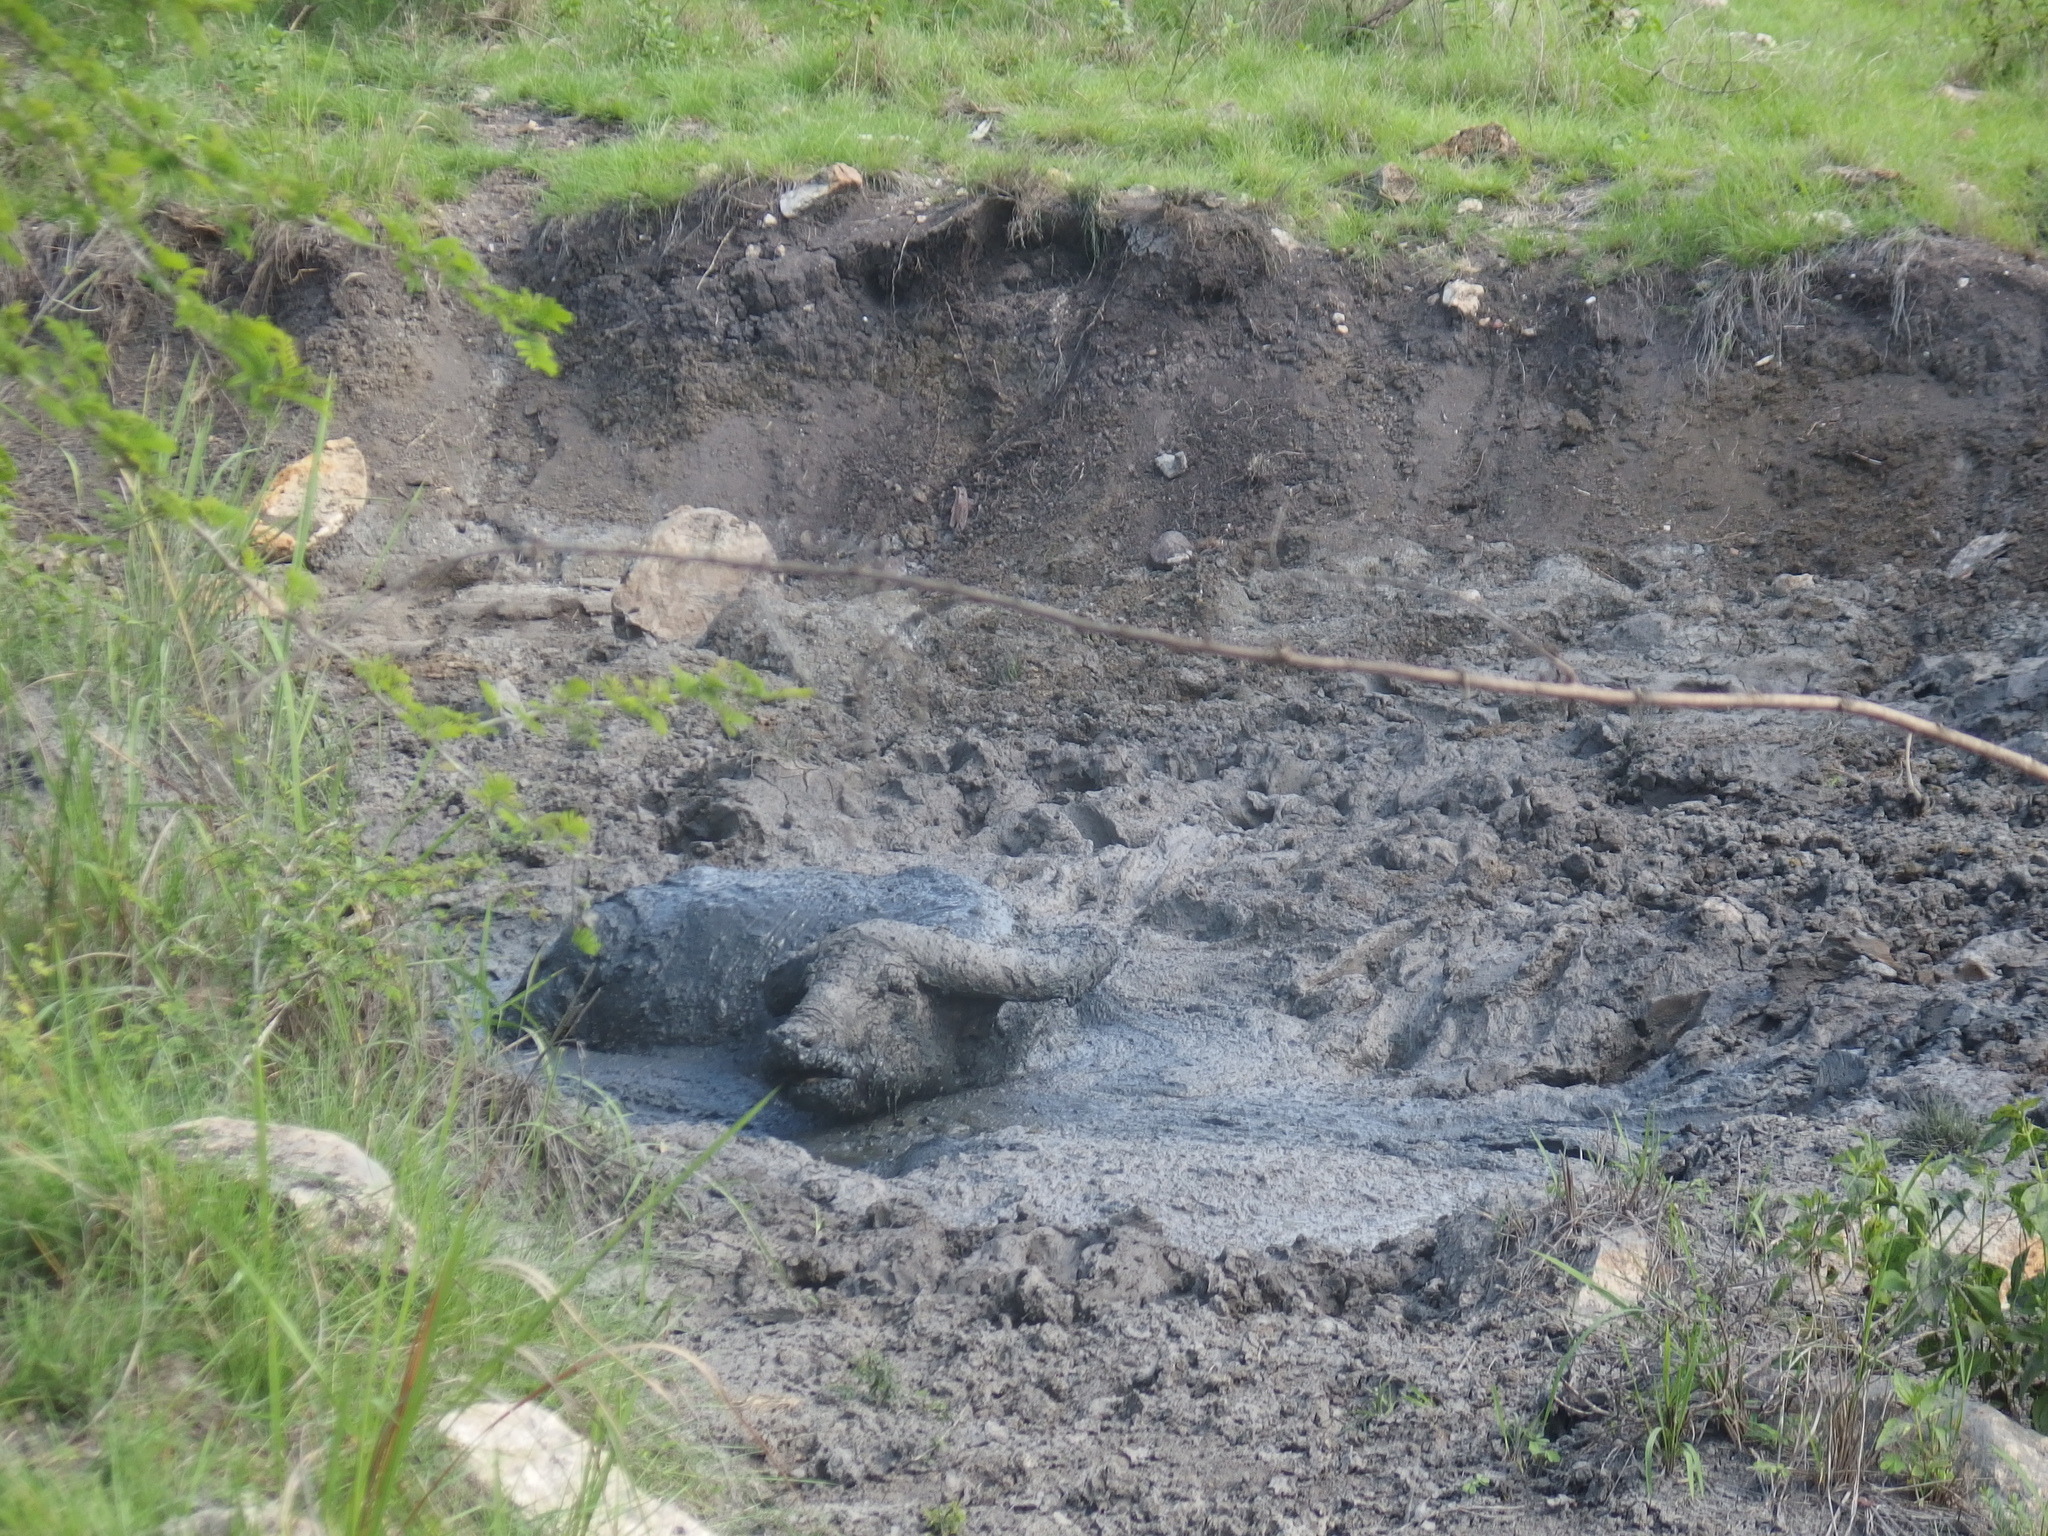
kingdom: Animalia
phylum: Chordata
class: Mammalia
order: Artiodactyla
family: Bovidae
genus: Bubalus
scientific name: Bubalus bubalis
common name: Water buffalo
